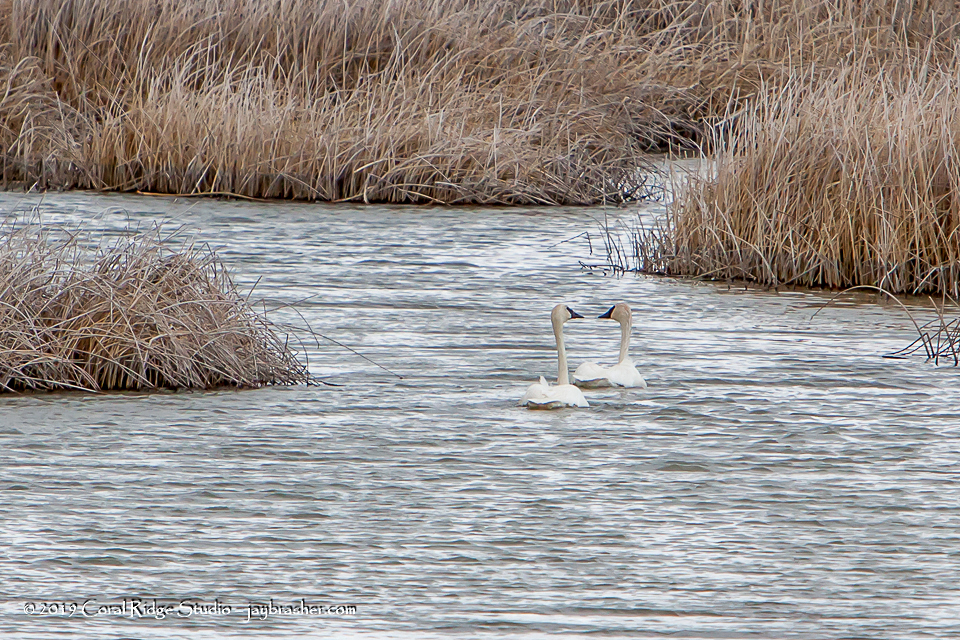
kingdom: Animalia
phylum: Chordata
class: Aves
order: Anseriformes
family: Anatidae
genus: Cygnus
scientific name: Cygnus buccinator
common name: Trumpeter swan
